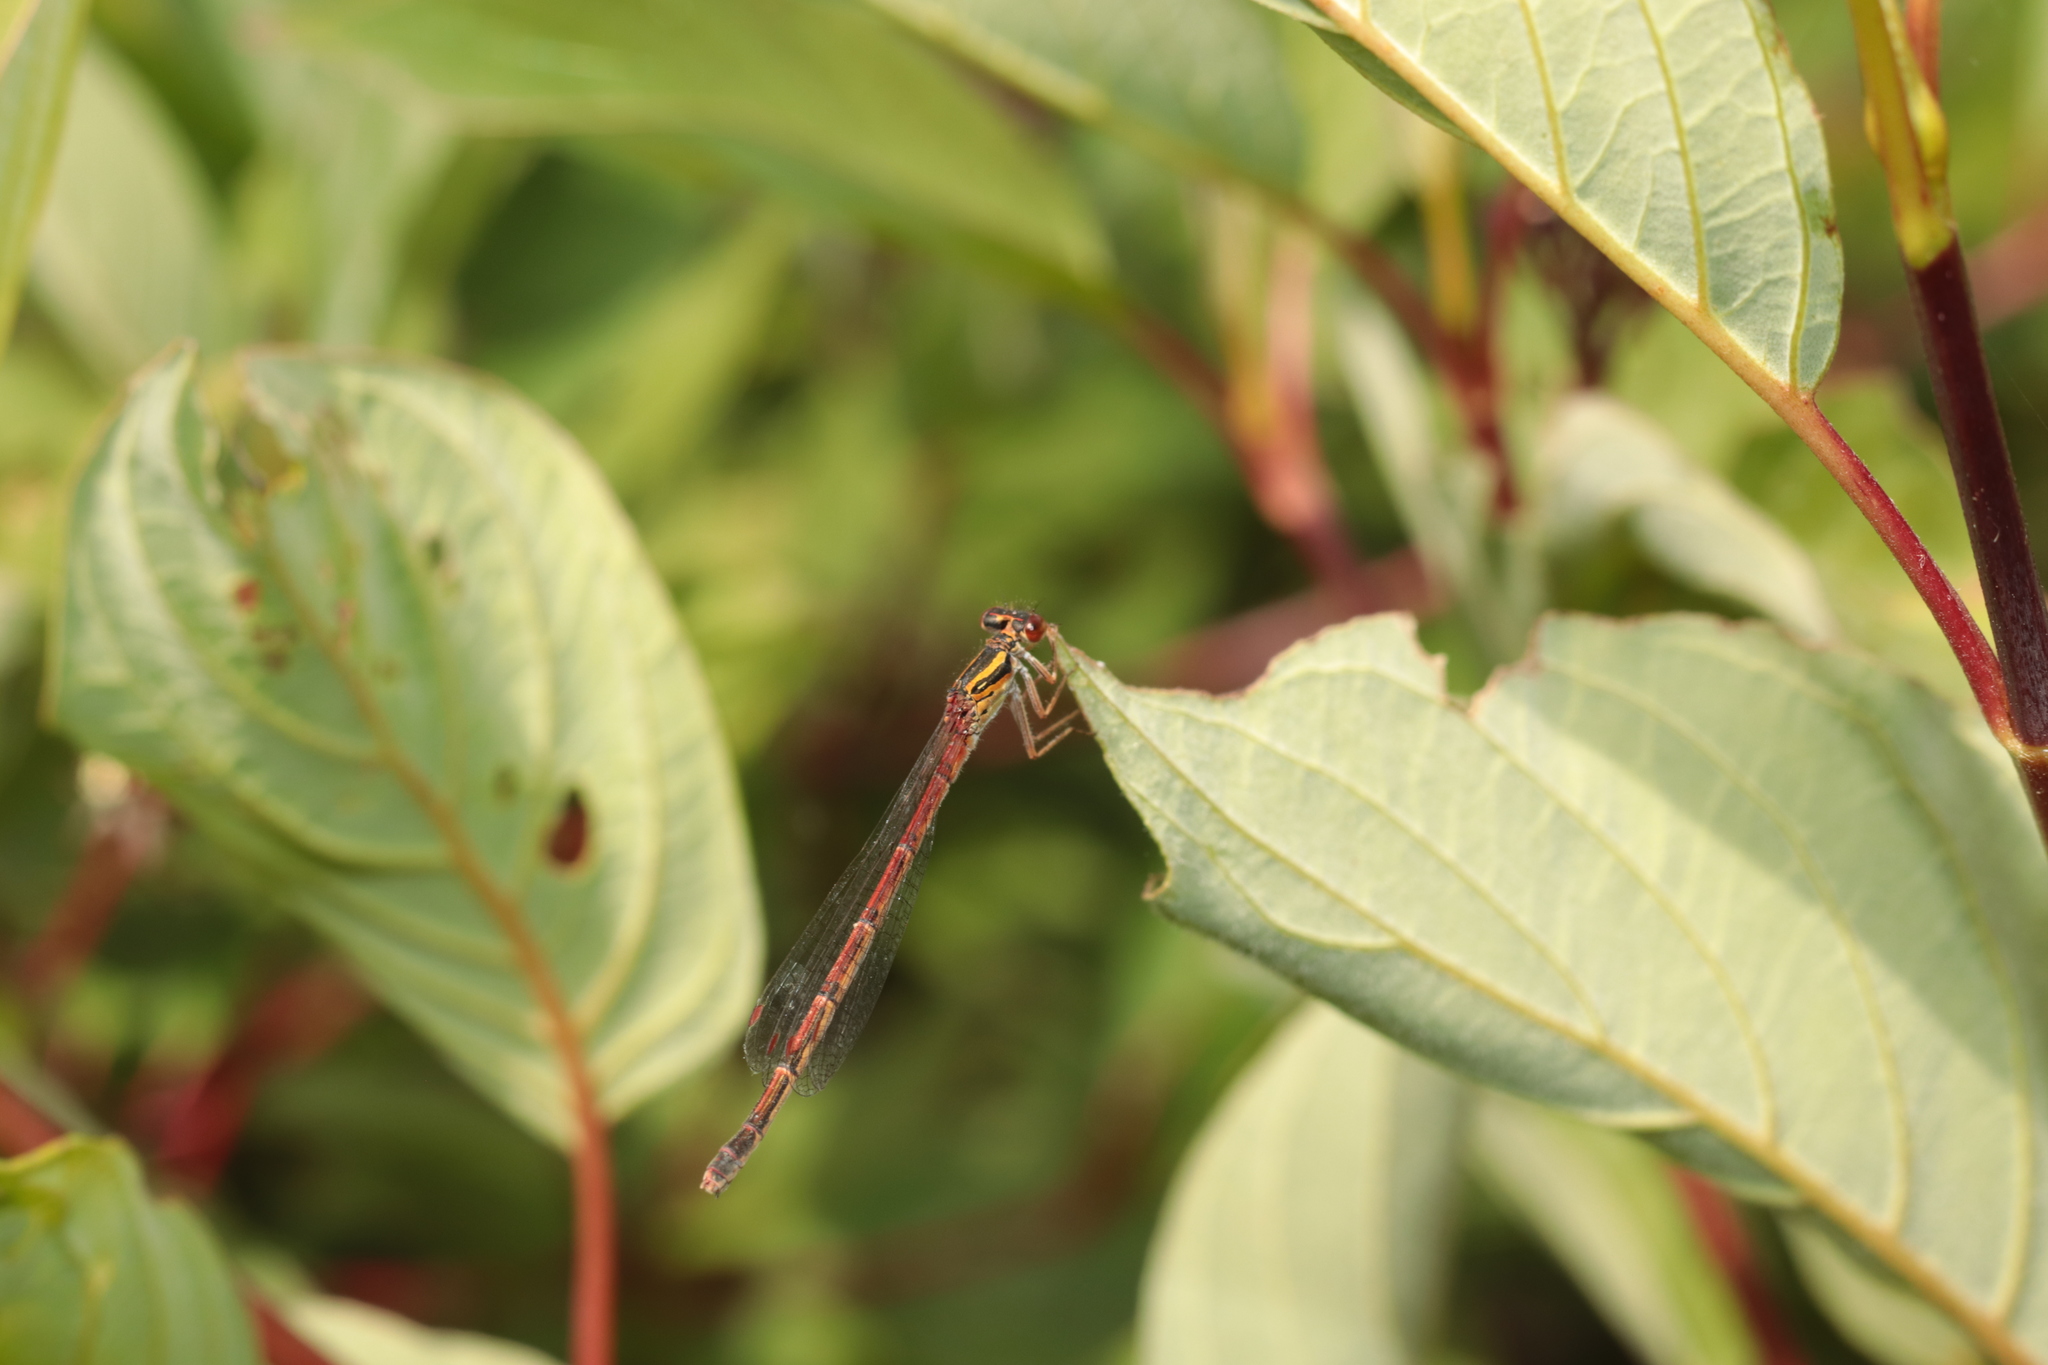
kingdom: Animalia
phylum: Arthropoda
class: Insecta
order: Odonata
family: Coenagrionidae
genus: Xanthocnemis
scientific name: Xanthocnemis zealandica
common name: Common redcoat damselfly
